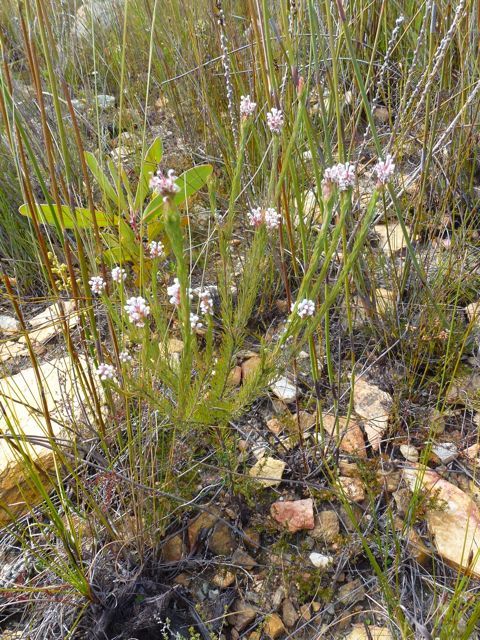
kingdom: Plantae
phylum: Tracheophyta
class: Magnoliopsida
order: Proteales
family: Proteaceae
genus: Spatalla
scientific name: Spatalla barbigera
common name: Fine-leaf spoon
